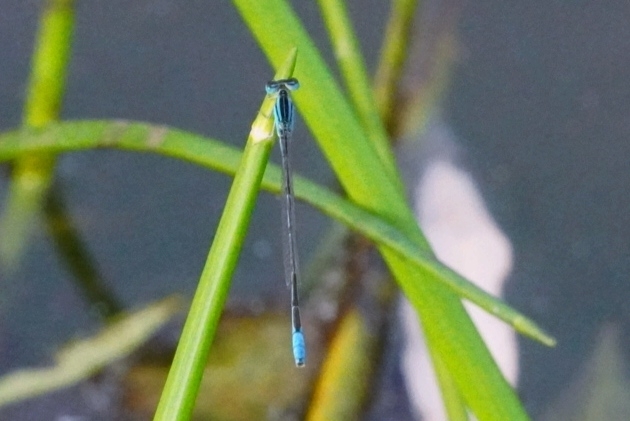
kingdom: Animalia
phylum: Arthropoda
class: Insecta
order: Odonata
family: Coenagrionidae
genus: Africallagma
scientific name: Africallagma glaucum
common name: Swamp bluet
